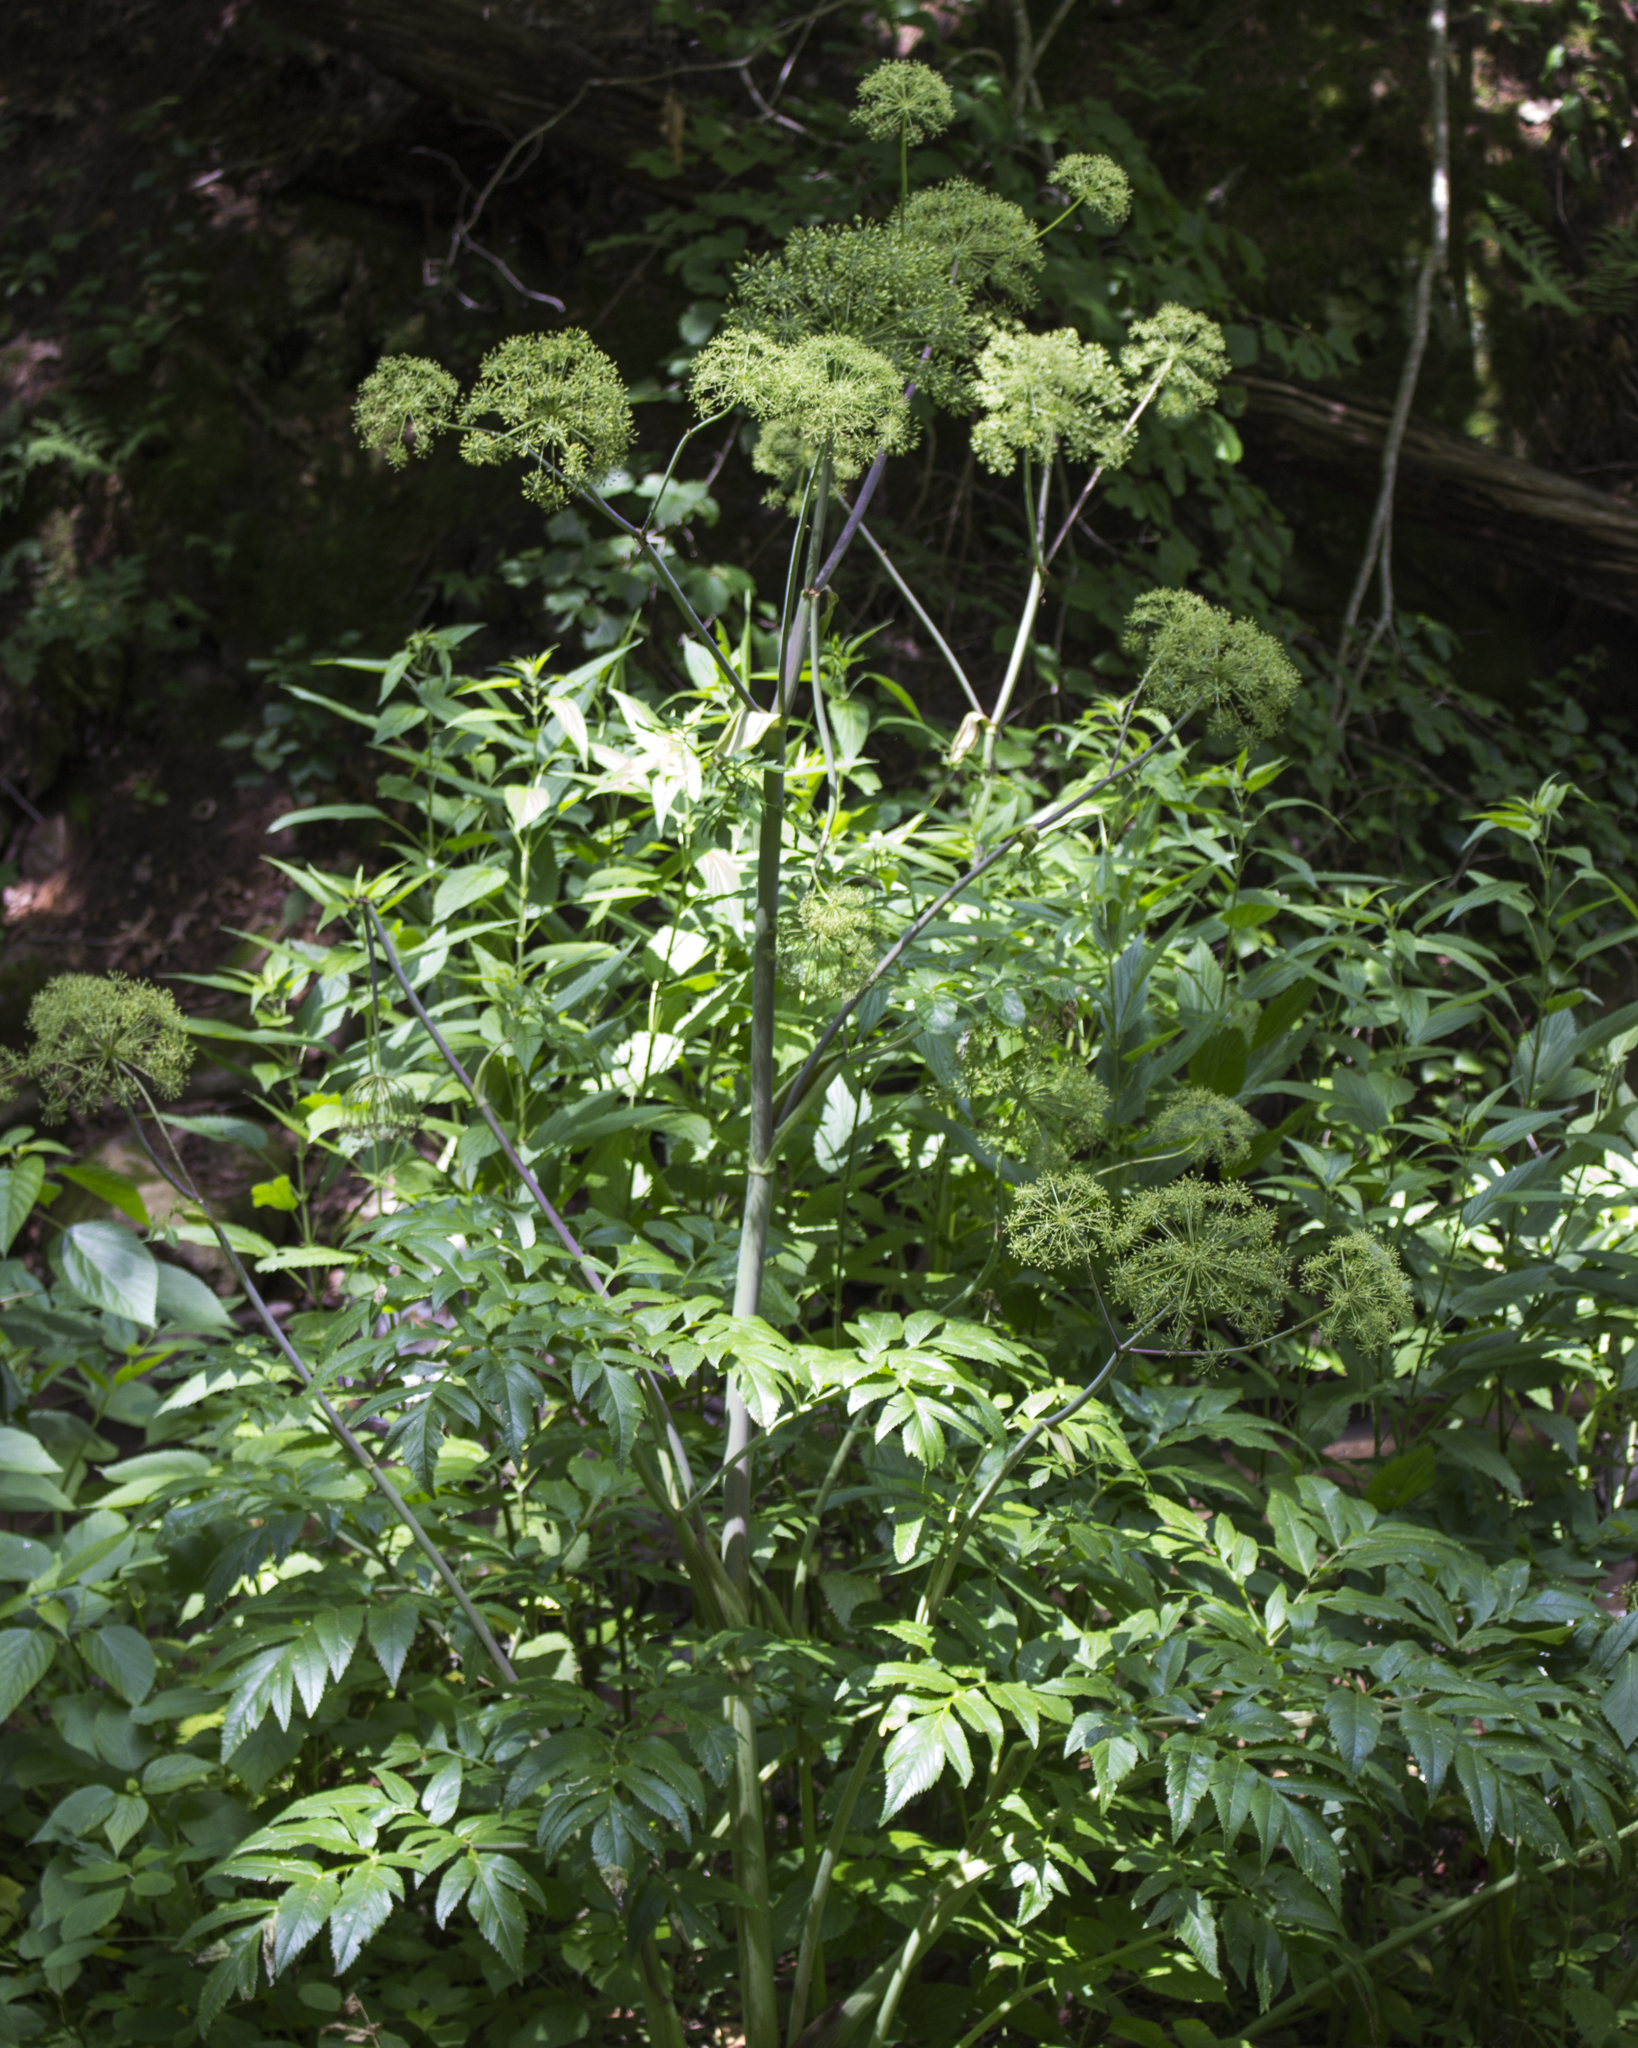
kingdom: Plantae
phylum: Tracheophyta
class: Magnoliopsida
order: Apiales
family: Apiaceae
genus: Angelica
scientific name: Angelica atropurpurea
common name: Great angelica
